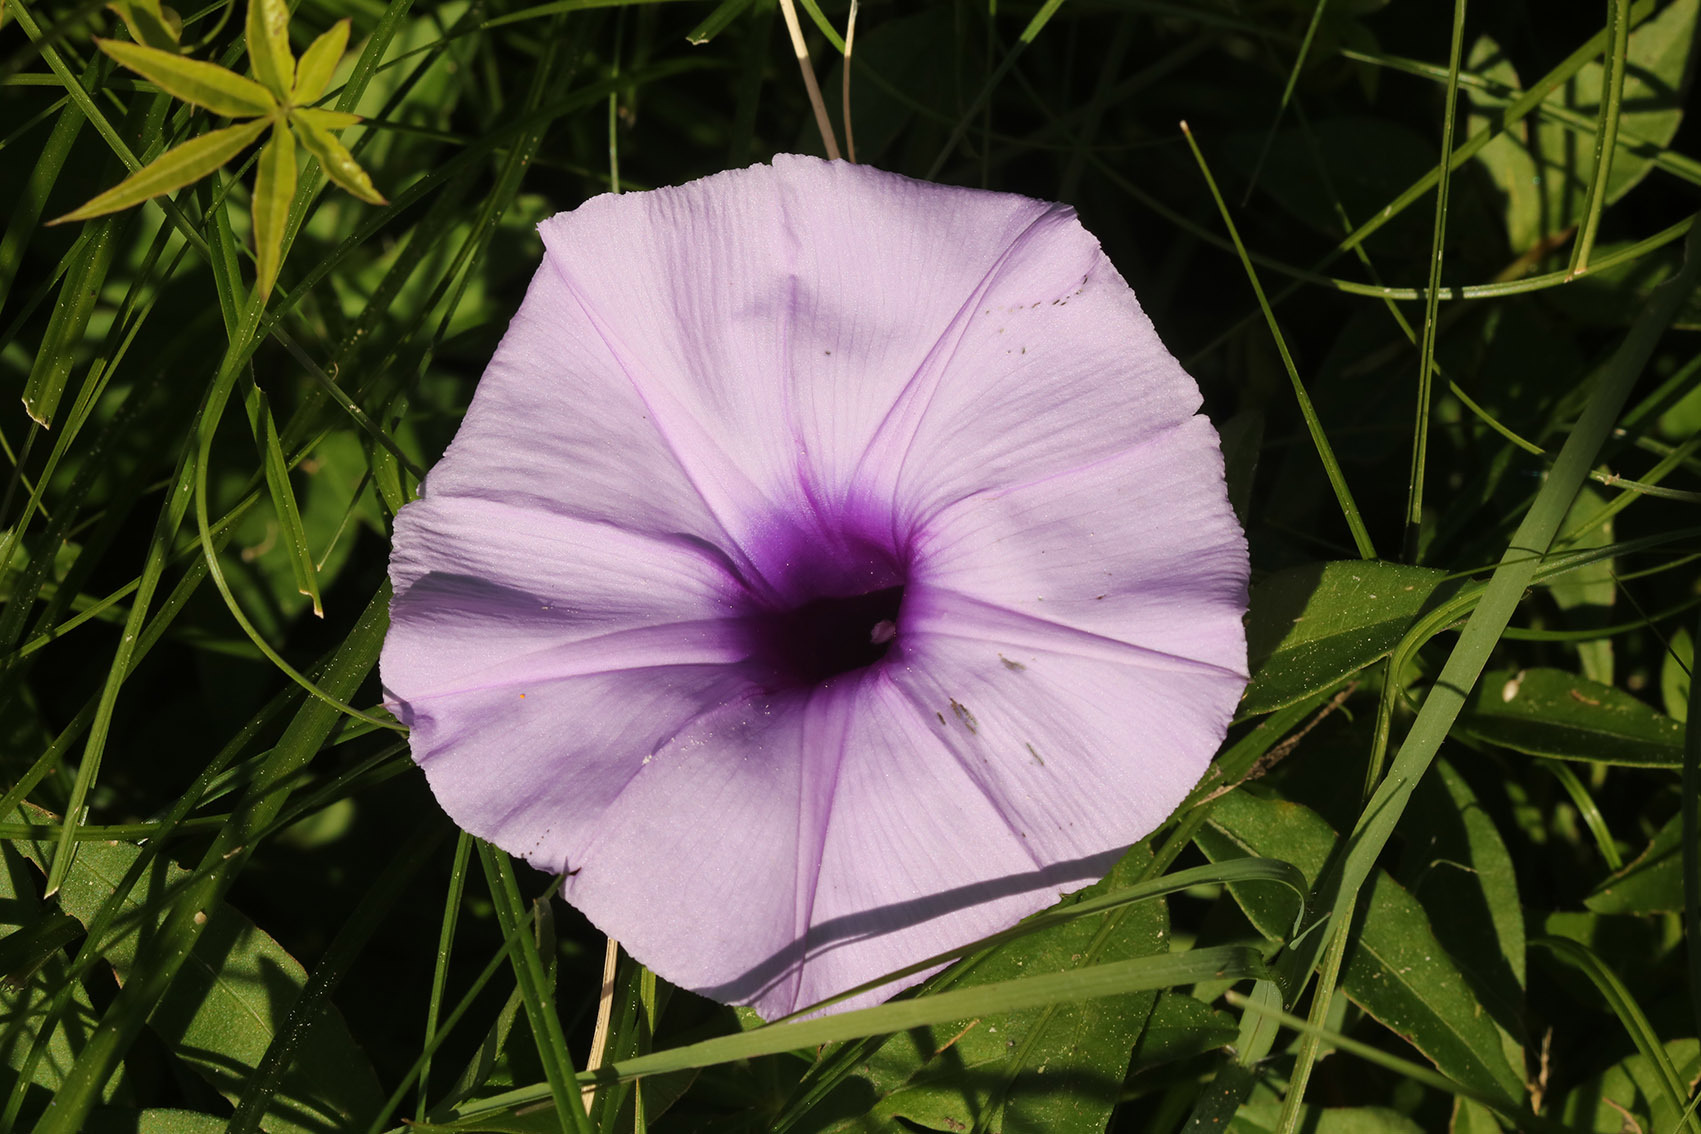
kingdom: Plantae
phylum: Tracheophyta
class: Magnoliopsida
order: Solanales
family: Convolvulaceae
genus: Ipomoea
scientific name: Ipomoea cairica
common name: Mile a minute vine
